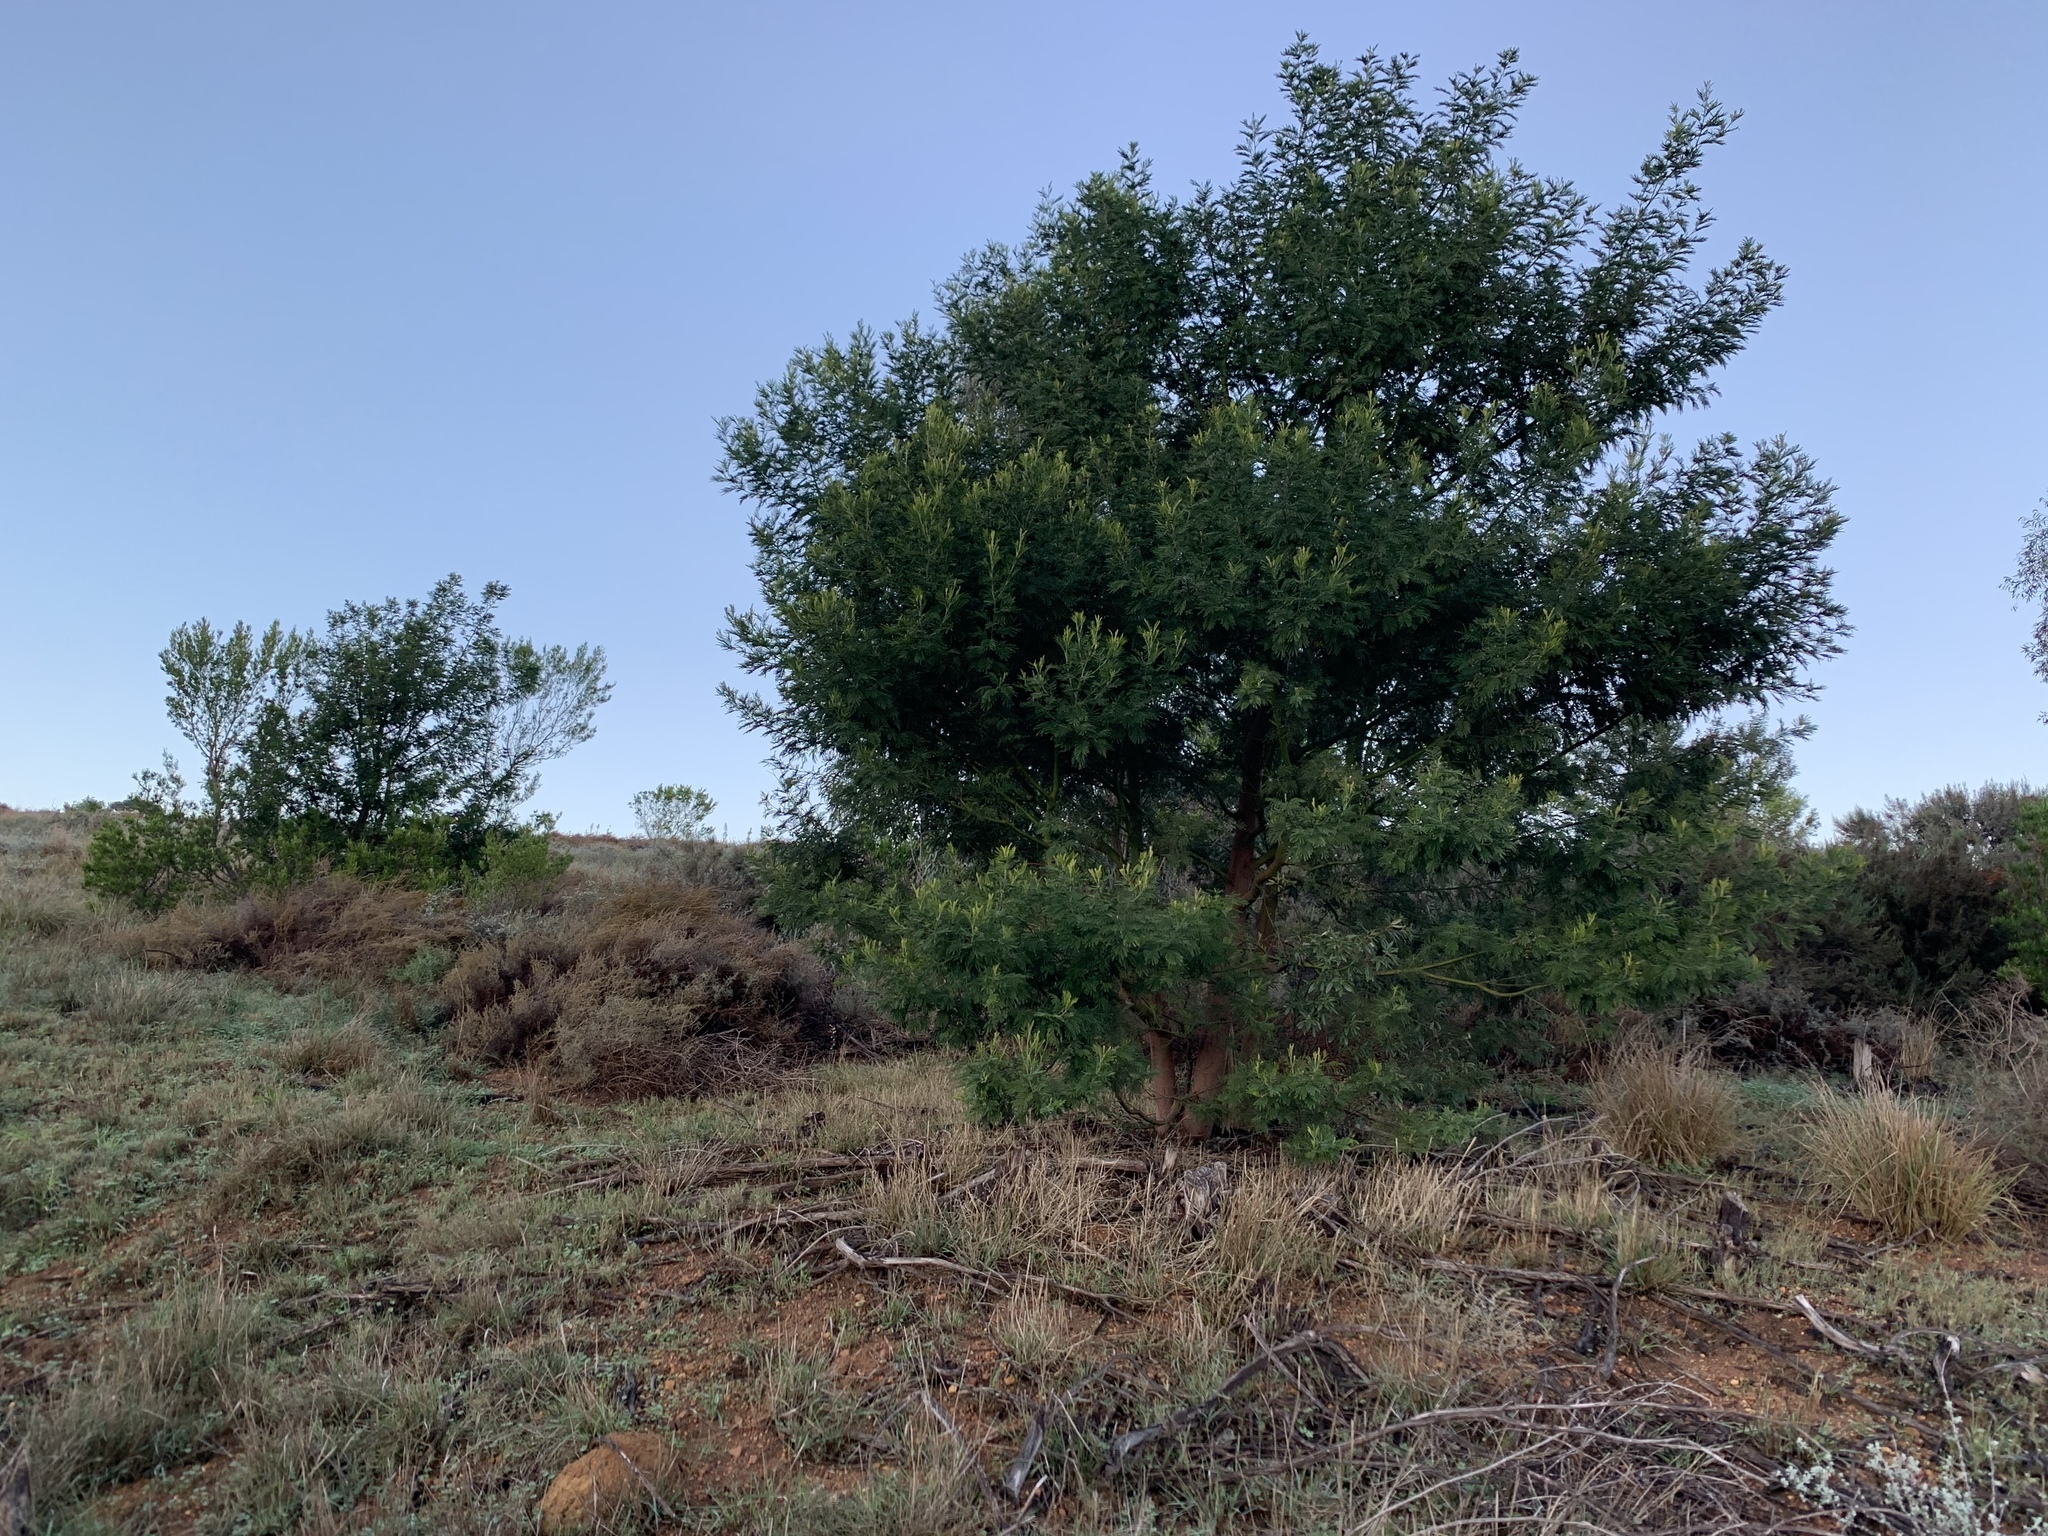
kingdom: Plantae
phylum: Tracheophyta
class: Magnoliopsida
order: Fabales
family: Fabaceae
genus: Acacia
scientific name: Acacia mearnsii
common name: Black wattle
